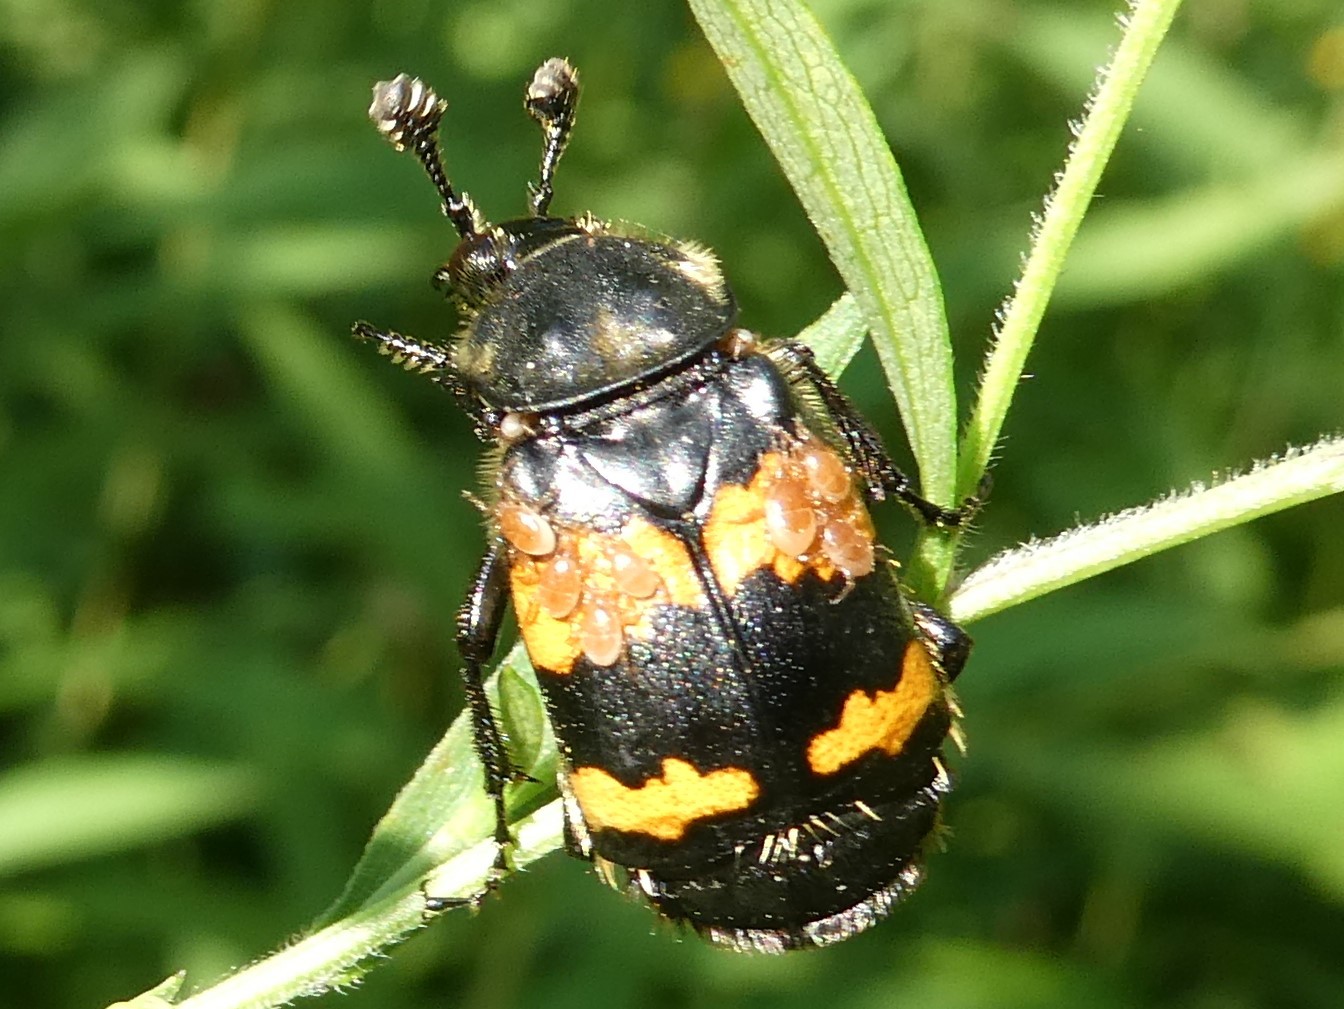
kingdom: Animalia
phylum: Arthropoda
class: Insecta
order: Coleoptera
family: Staphylinidae
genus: Nicrophorus
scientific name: Nicrophorus tomentosus
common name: Tomentose burying beetle
